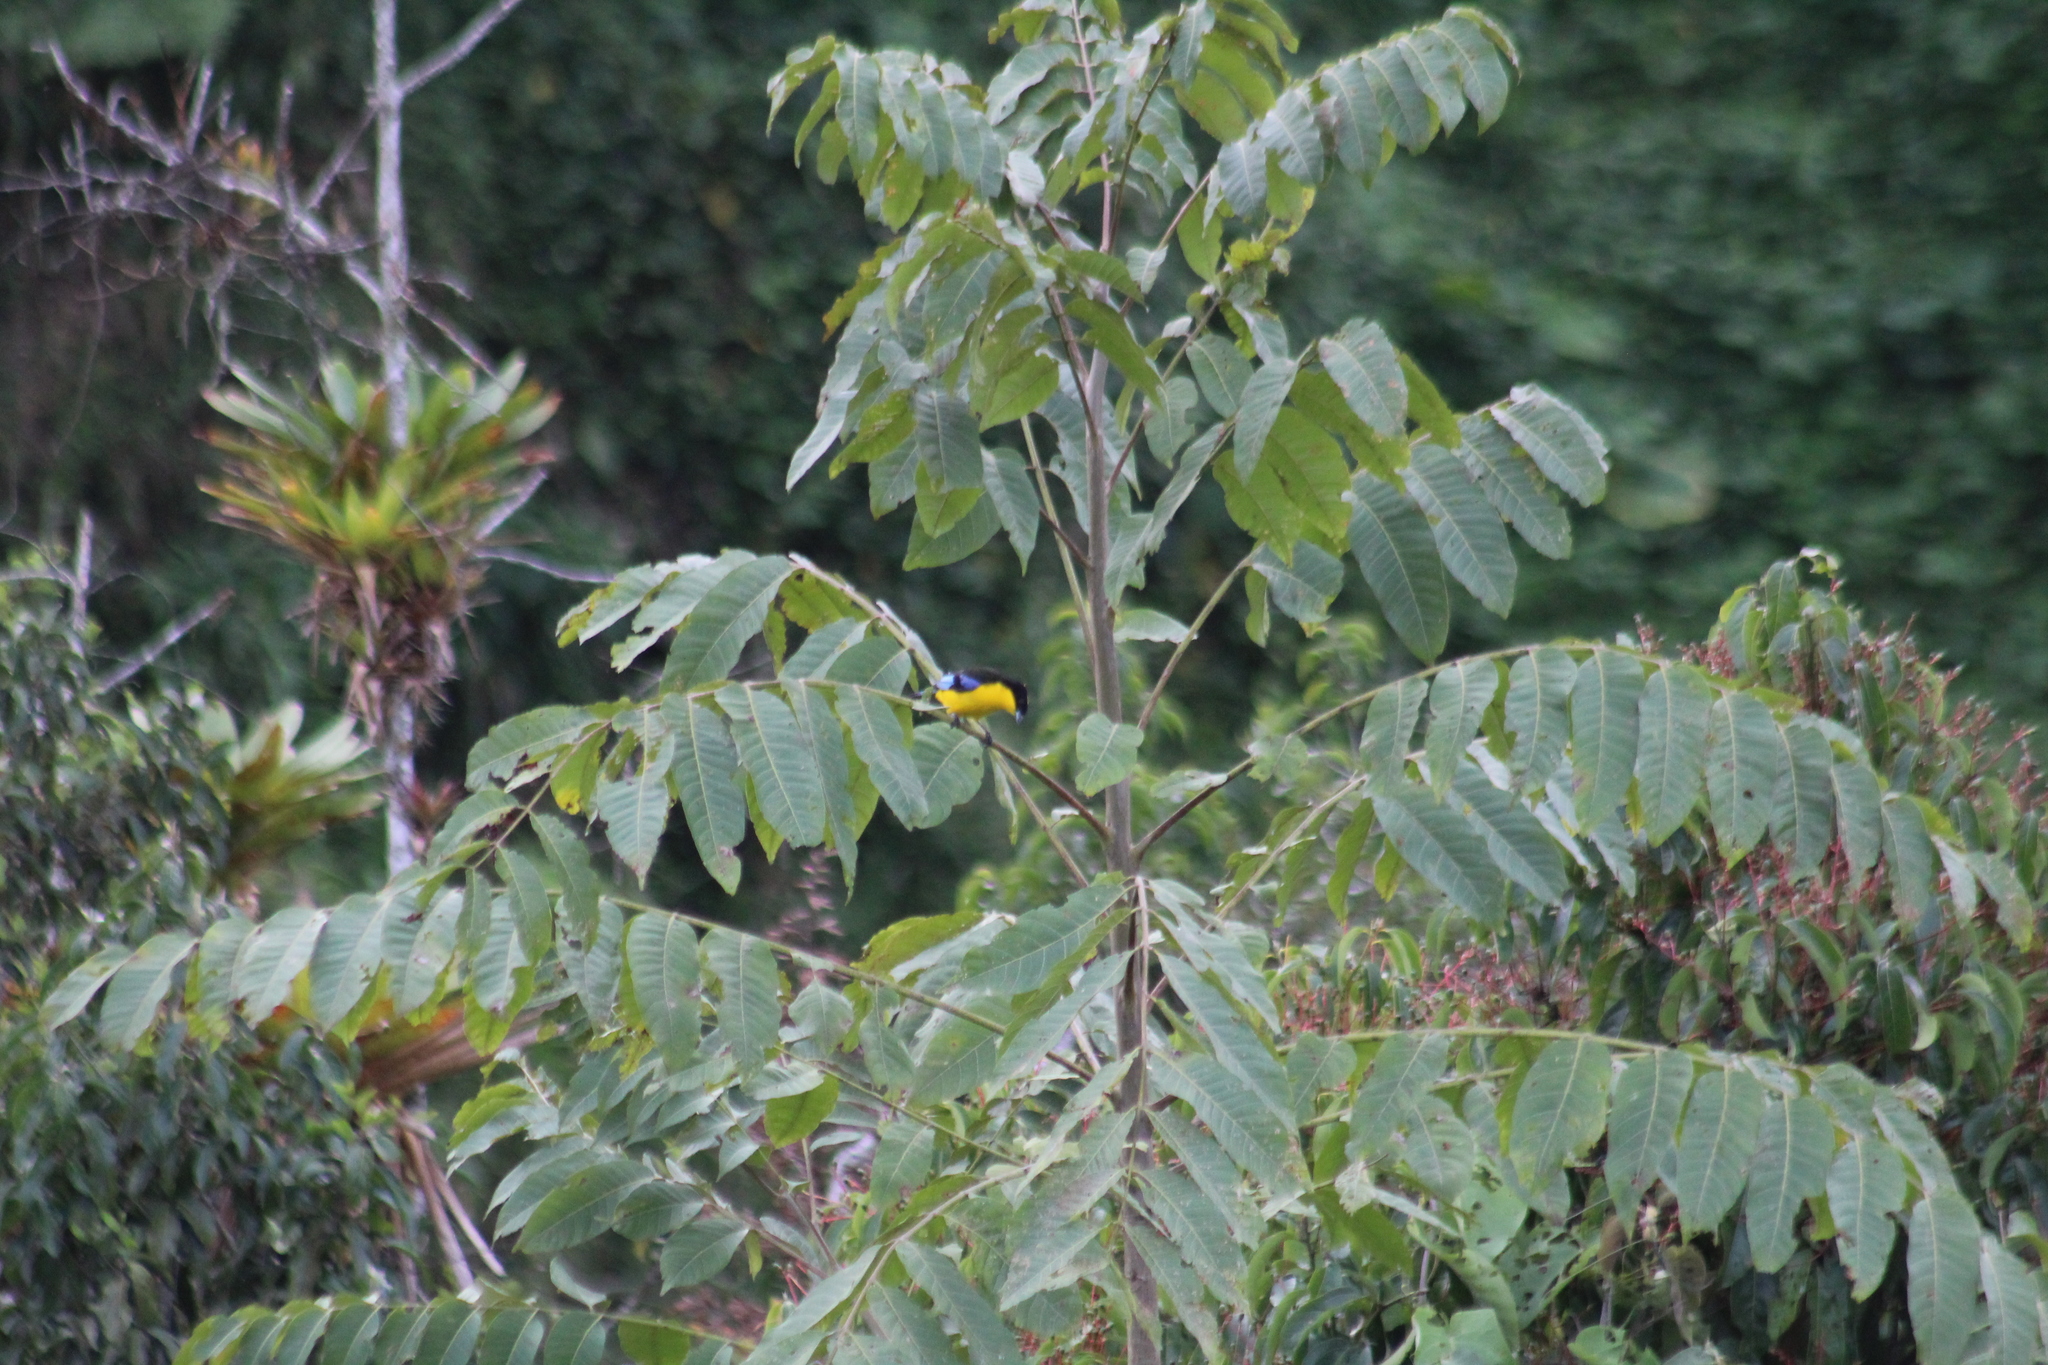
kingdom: Animalia
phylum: Chordata
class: Aves
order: Passeriformes
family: Thraupidae
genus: Anisognathus
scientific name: Anisognathus somptuosus
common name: Blue-winged mountain-tanager
